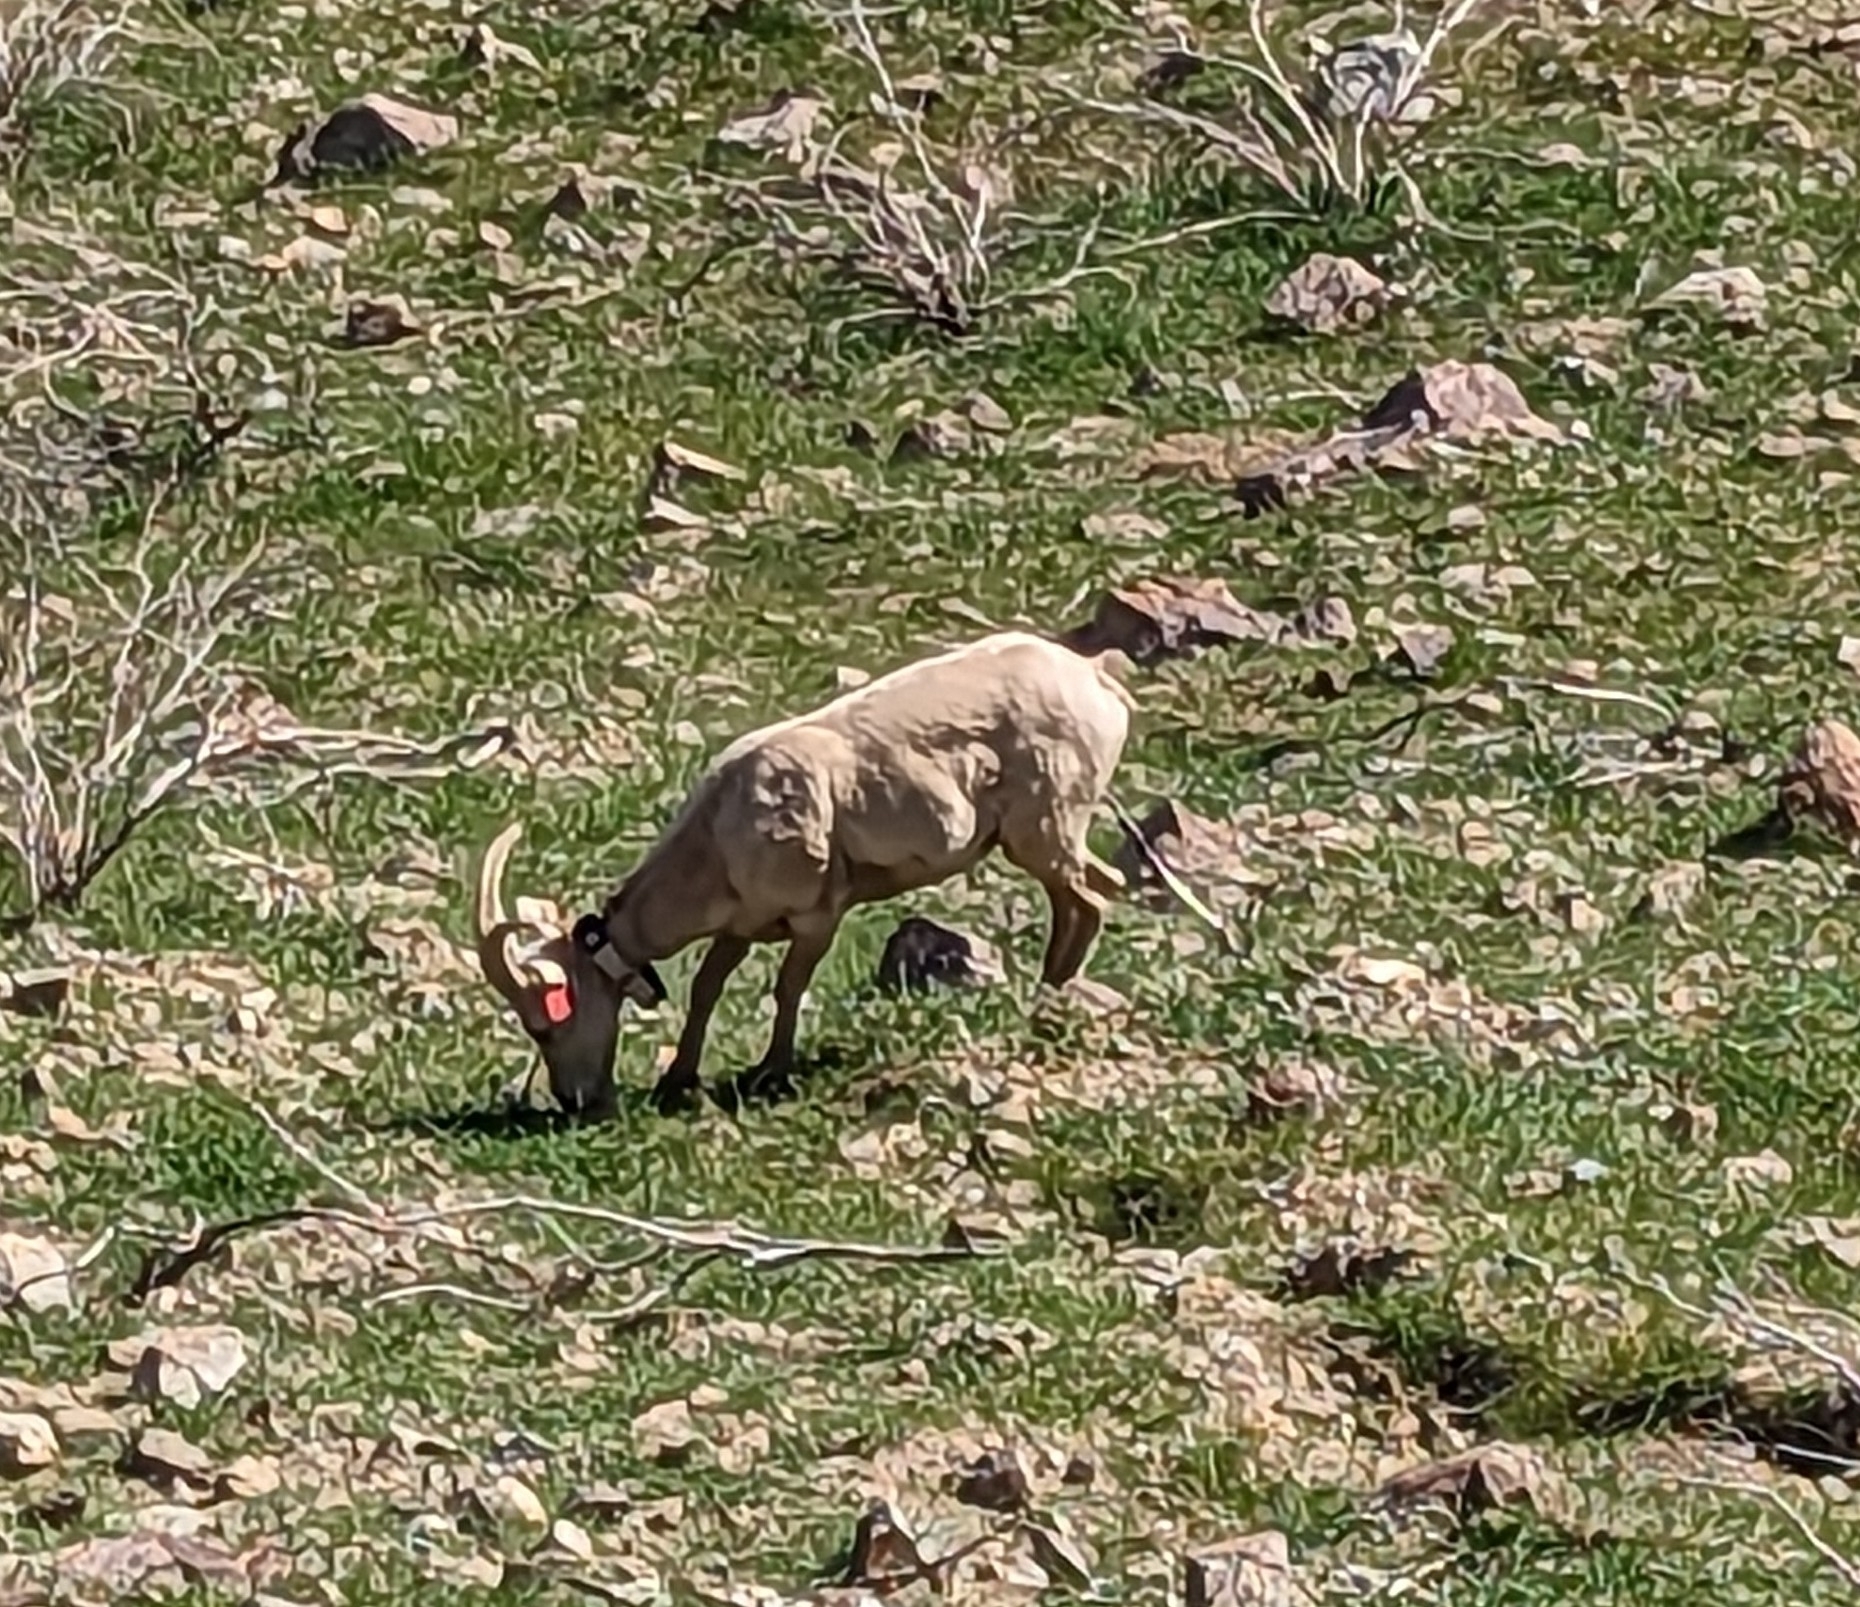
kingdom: Animalia
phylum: Chordata
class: Mammalia
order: Artiodactyla
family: Bovidae
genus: Ovis
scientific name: Ovis canadensis
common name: Bighorn sheep
